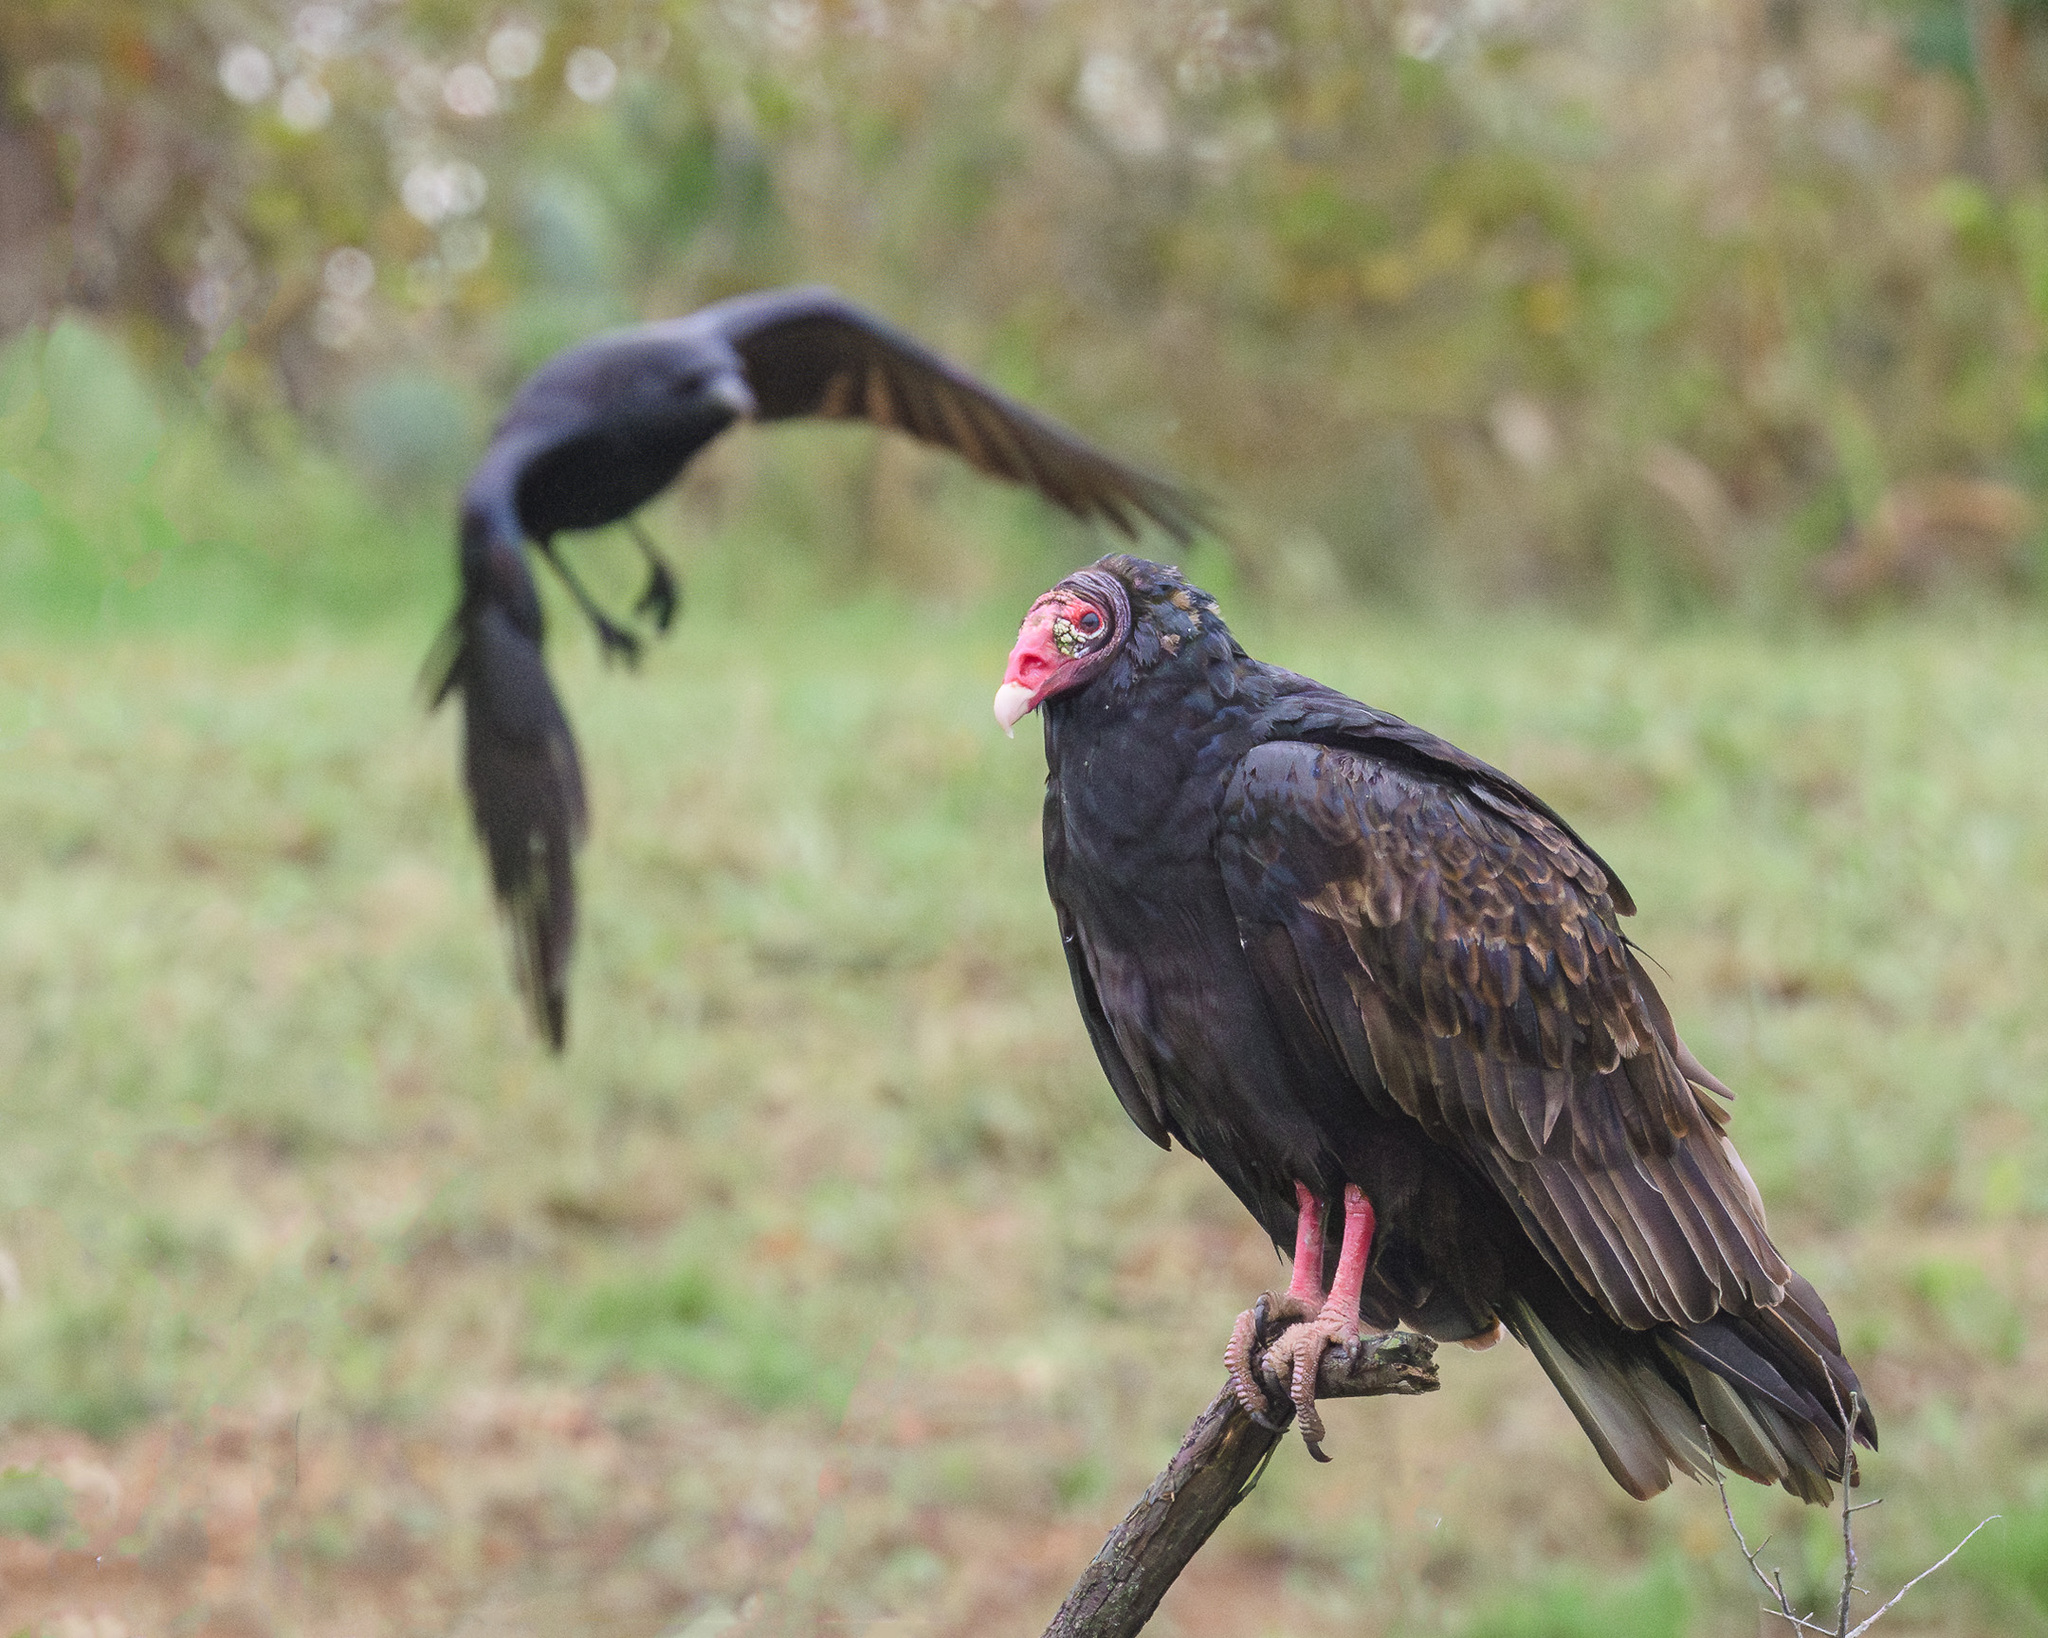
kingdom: Animalia
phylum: Chordata
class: Aves
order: Accipitriformes
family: Cathartidae
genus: Cathartes
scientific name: Cathartes aura
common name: Turkey vulture
